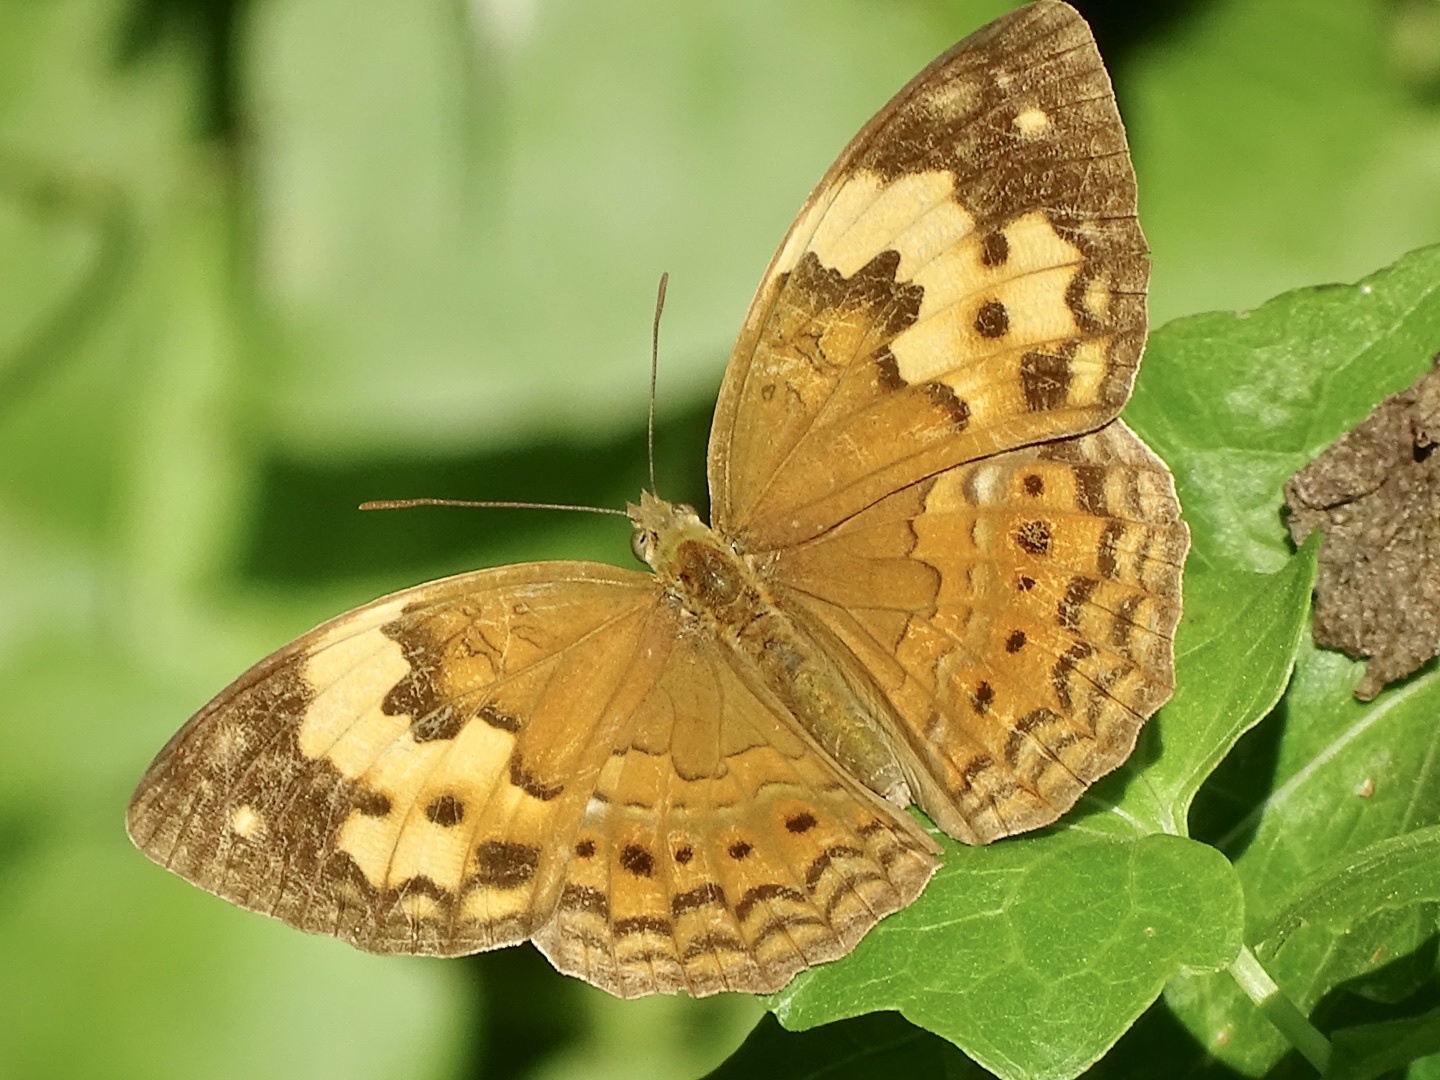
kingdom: Animalia
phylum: Arthropoda
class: Insecta
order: Lepidoptera
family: Nymphalidae
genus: Cupha
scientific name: Cupha erymanthis
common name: Rustic
